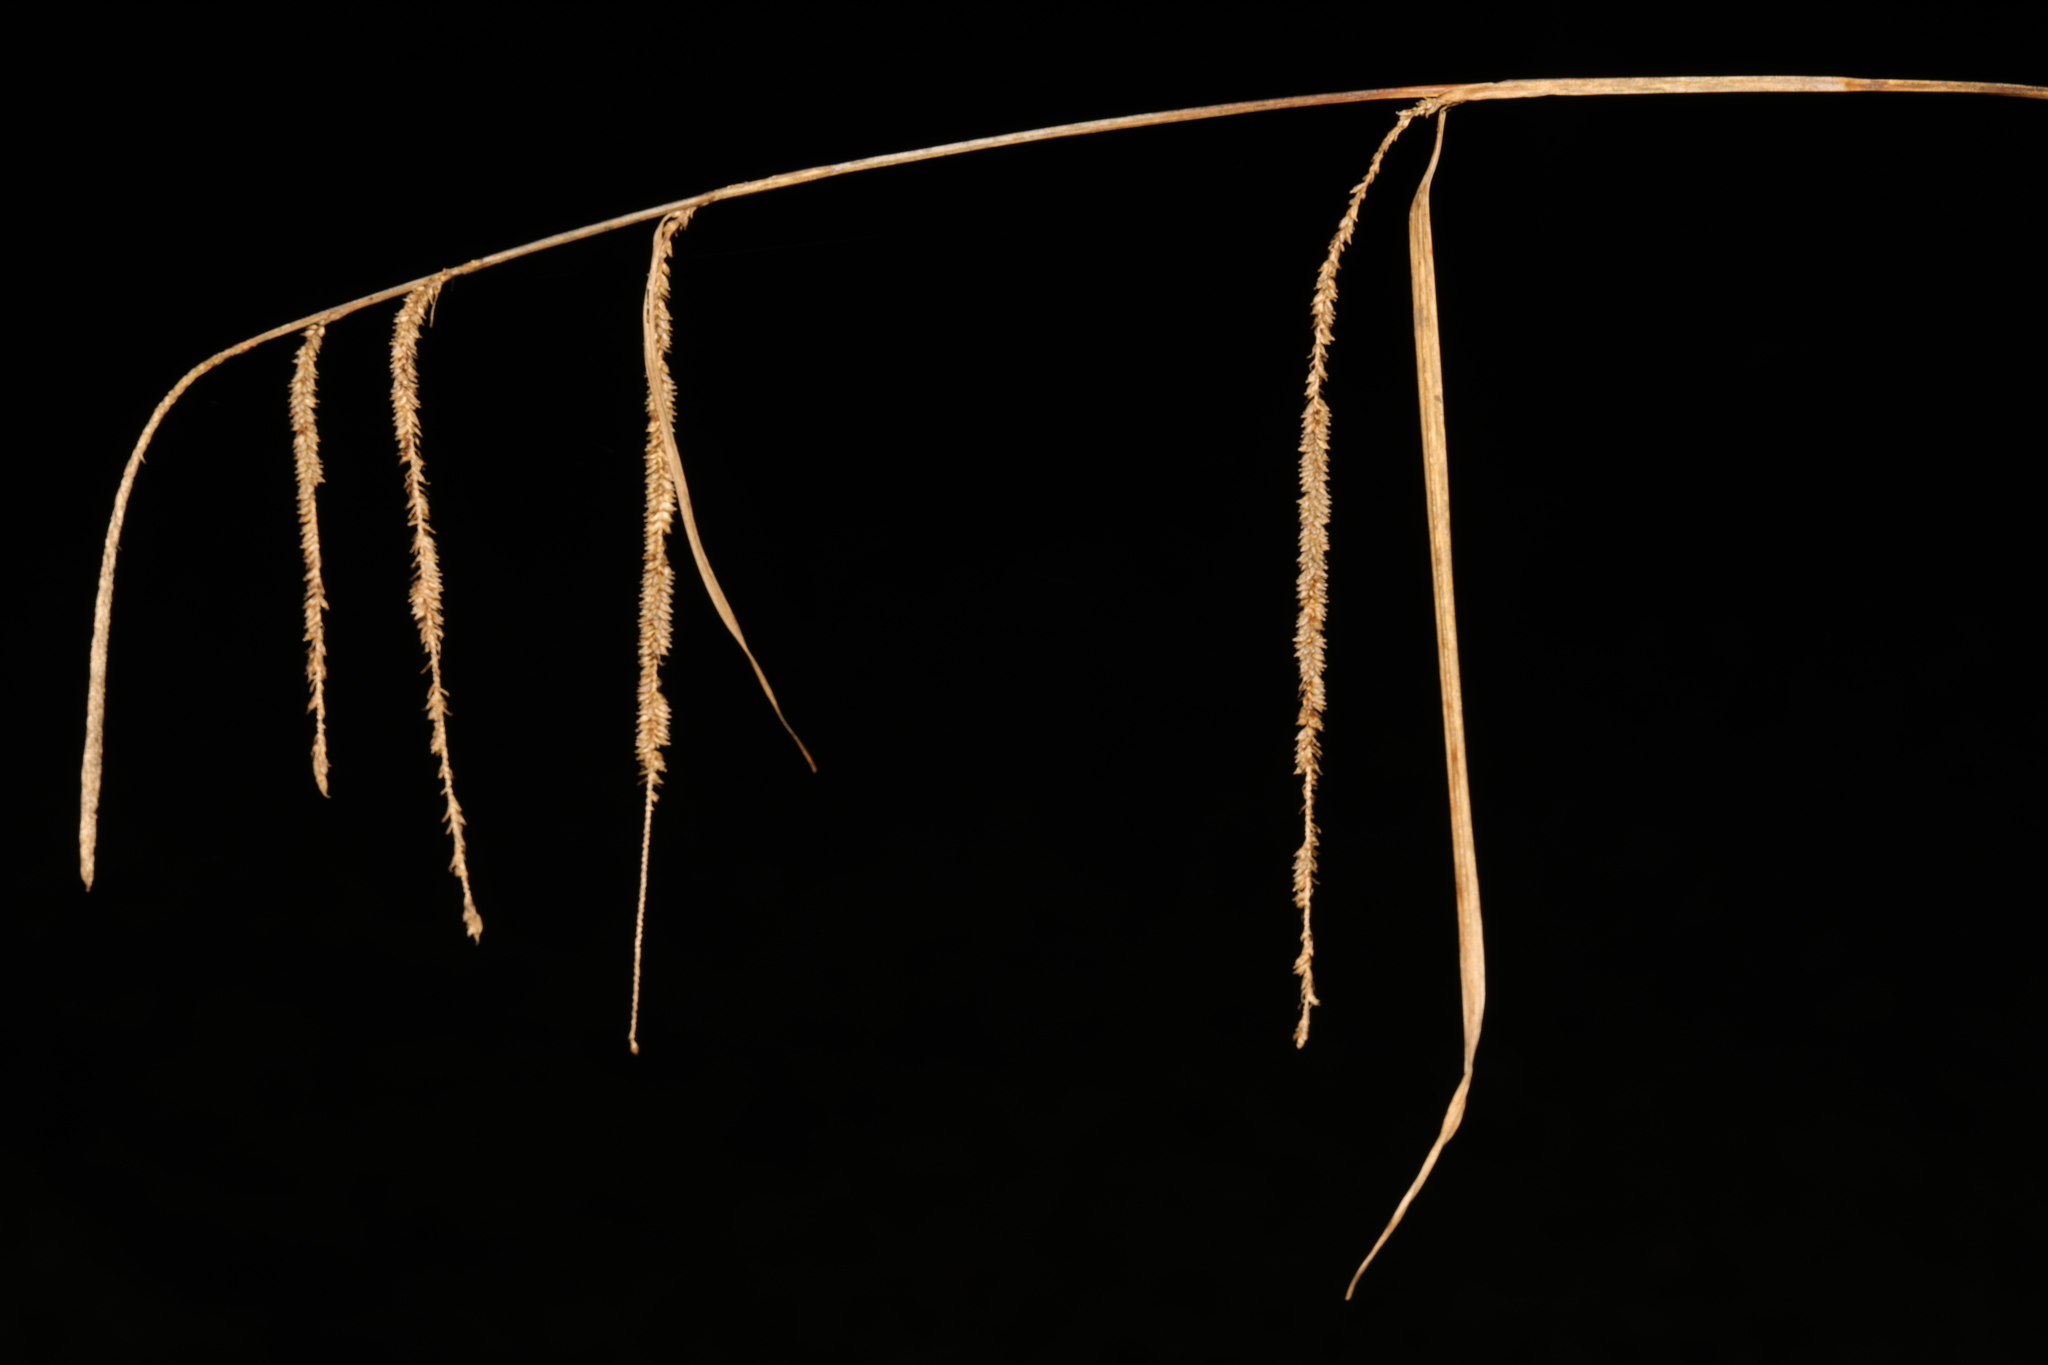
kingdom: Plantae
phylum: Tracheophyta
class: Liliopsida
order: Poales
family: Cyperaceae
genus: Carex
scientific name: Carex pendula
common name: Pendulous sedge
